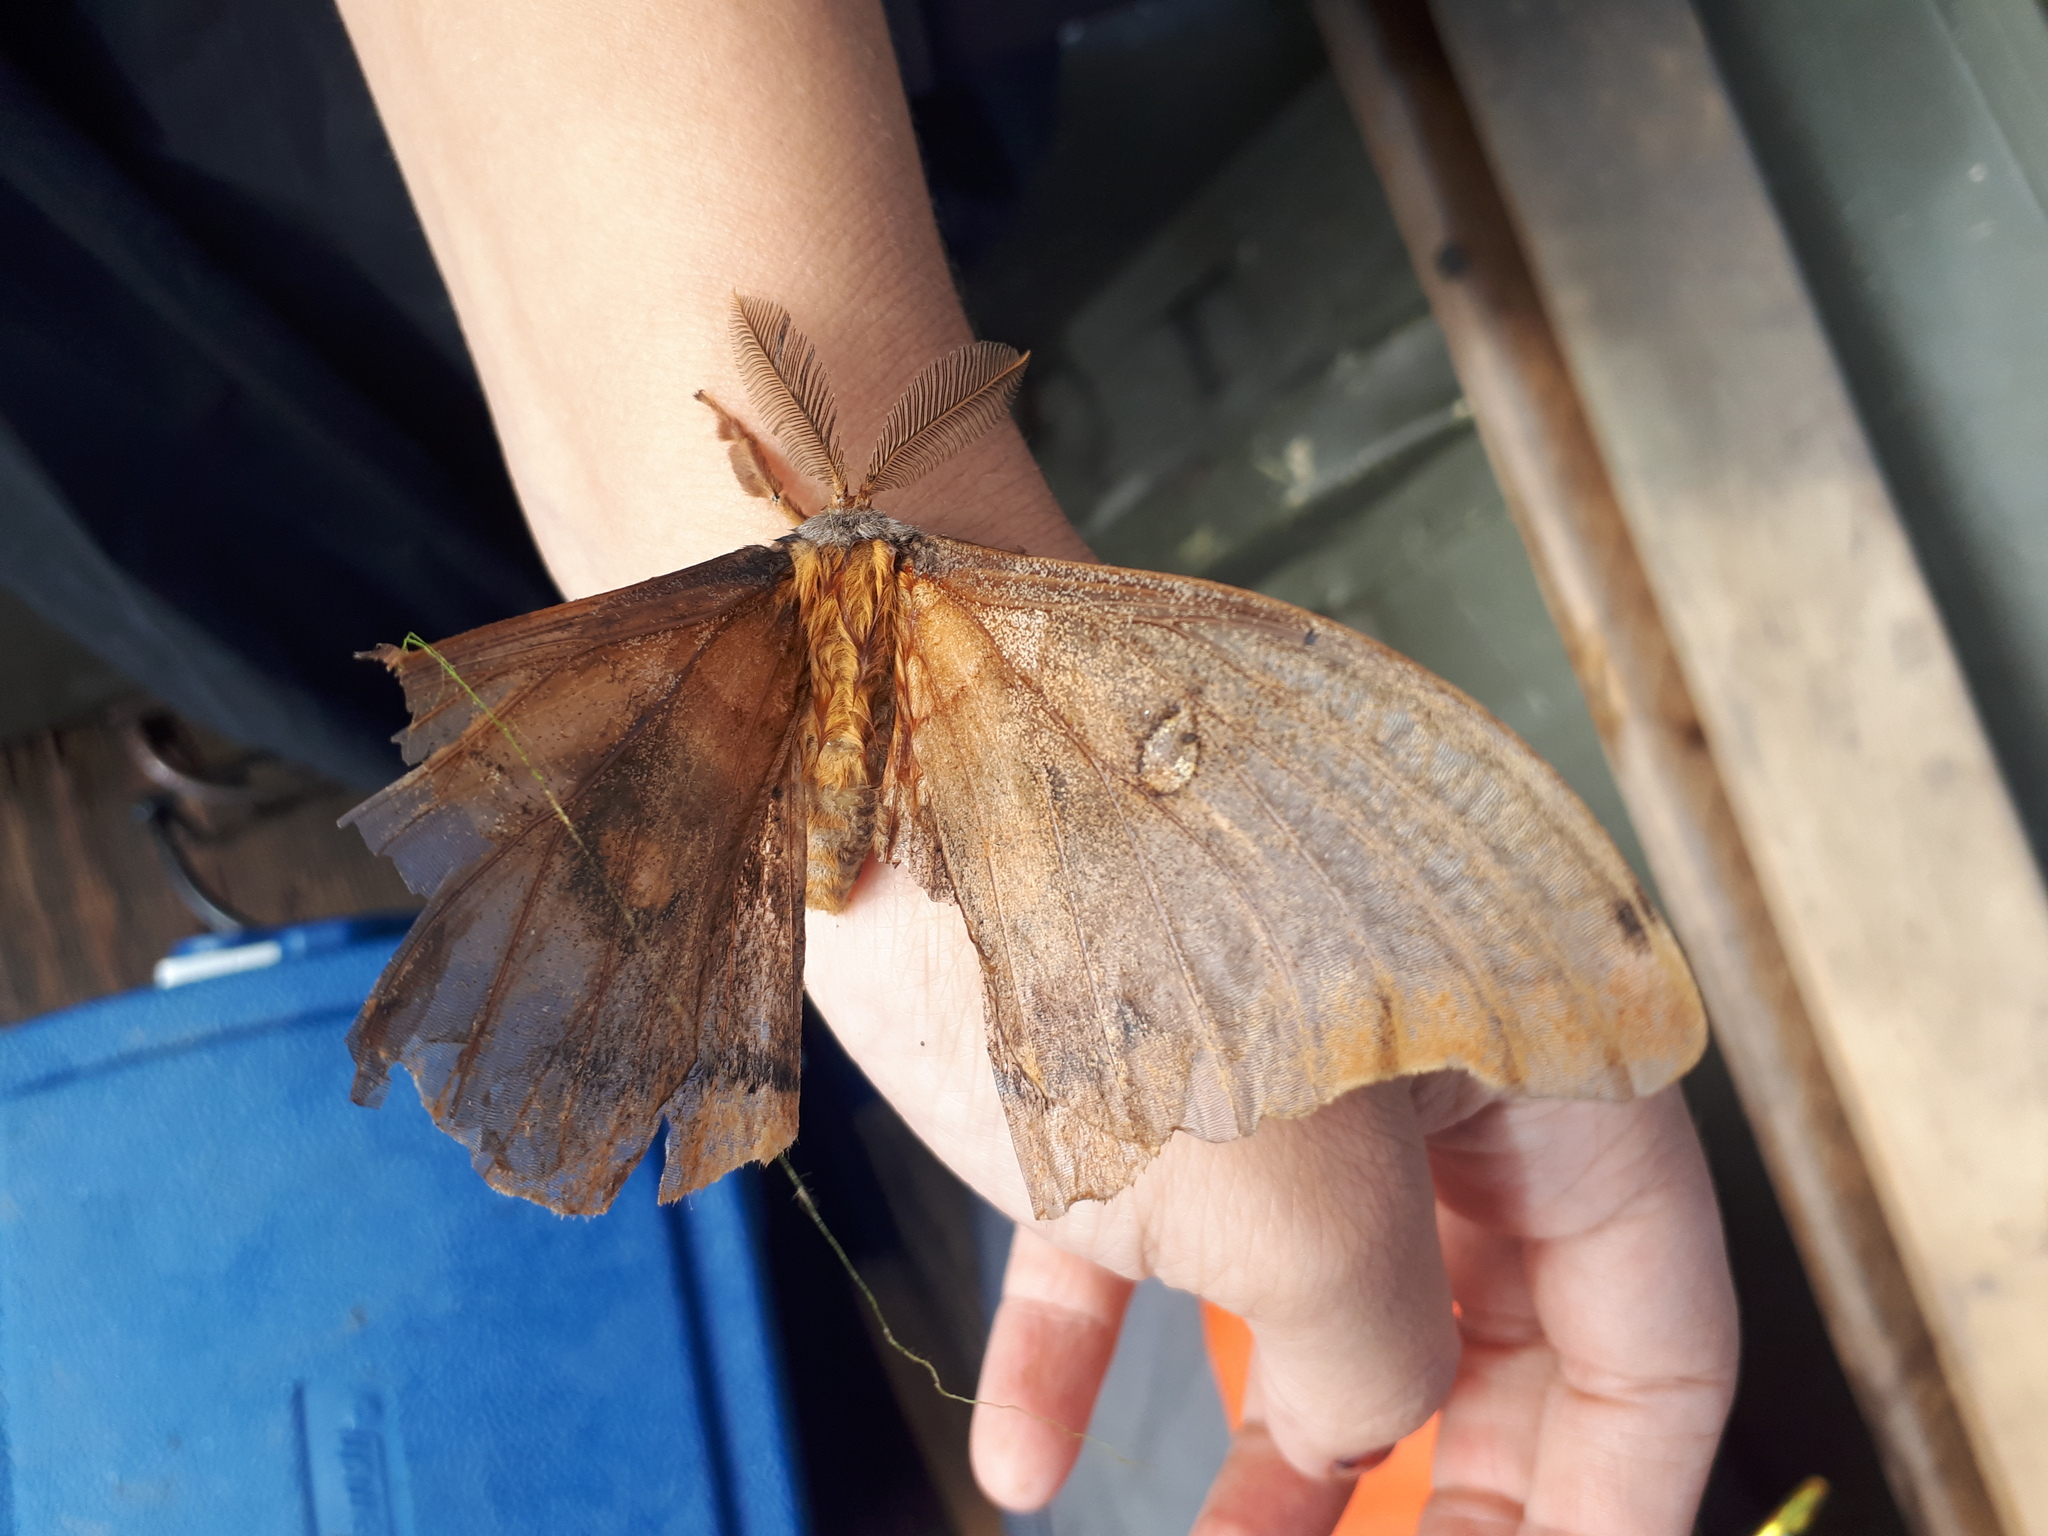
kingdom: Animalia
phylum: Arthropoda
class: Insecta
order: Lepidoptera
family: Saturniidae
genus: Antheraea
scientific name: Antheraea polyphemus
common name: Polyphemus moth
